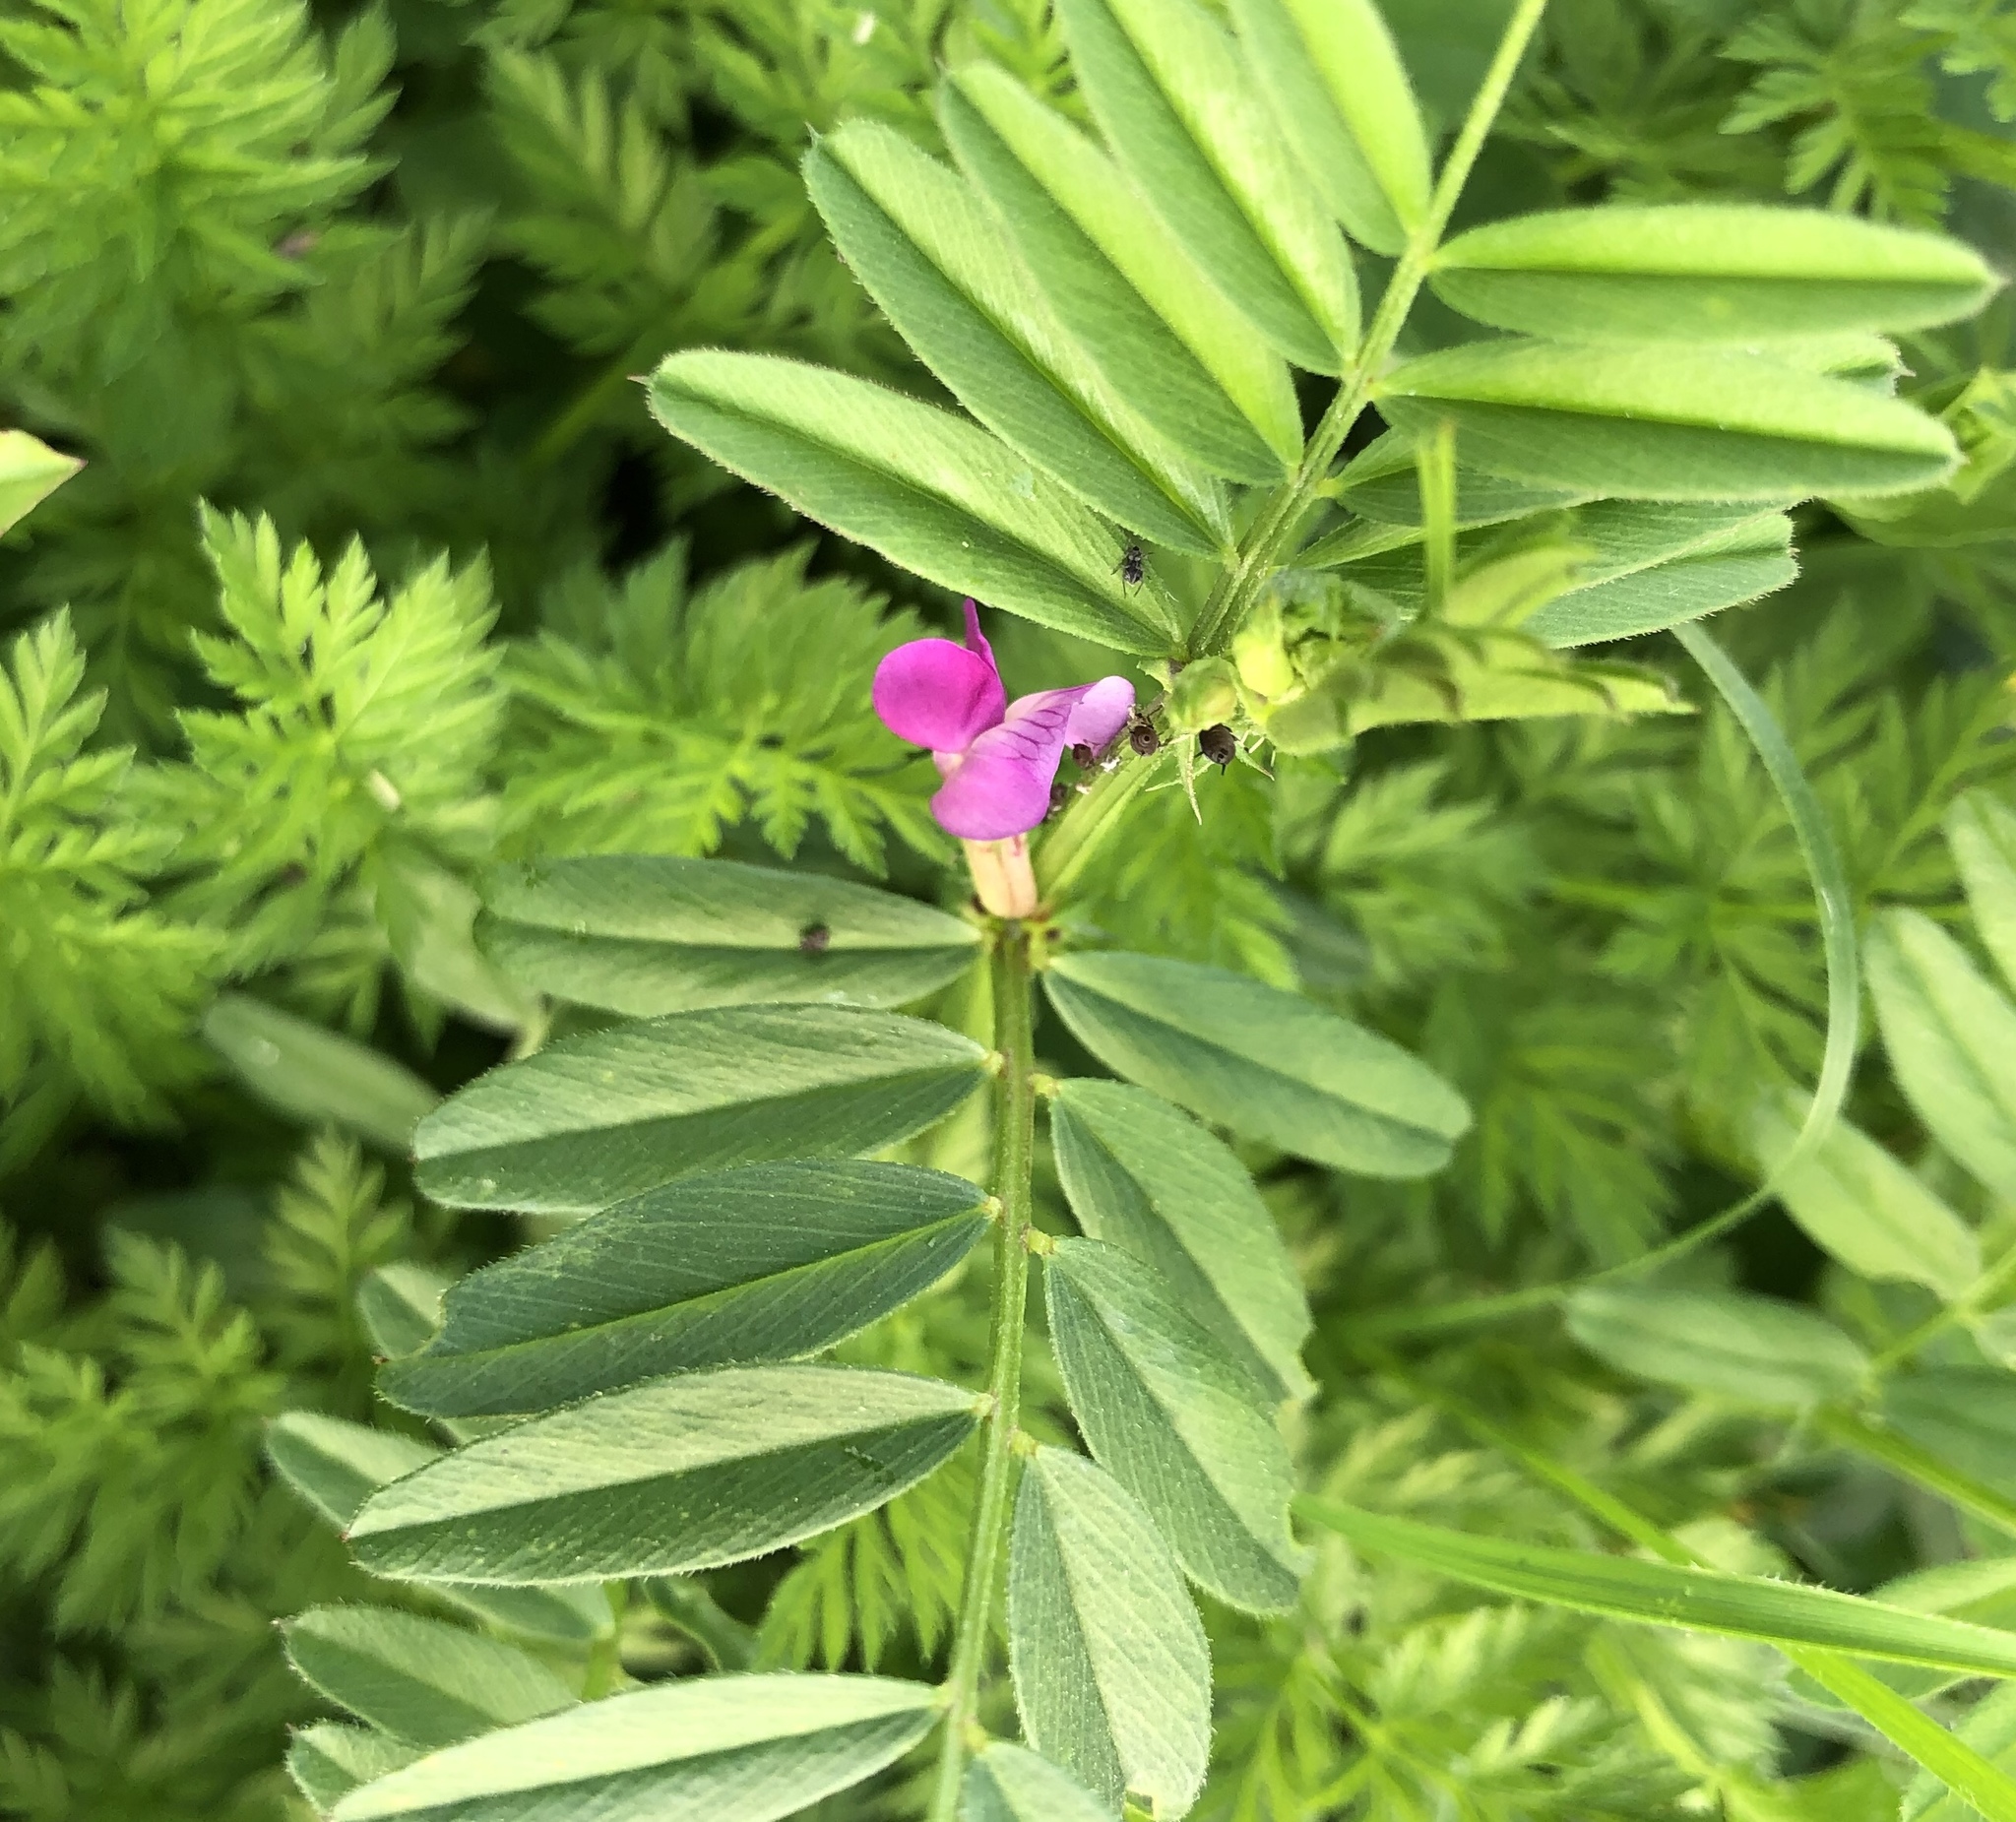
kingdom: Plantae
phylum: Tracheophyta
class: Magnoliopsida
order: Fabales
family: Fabaceae
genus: Vicia
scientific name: Vicia sativa
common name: Garden vetch
